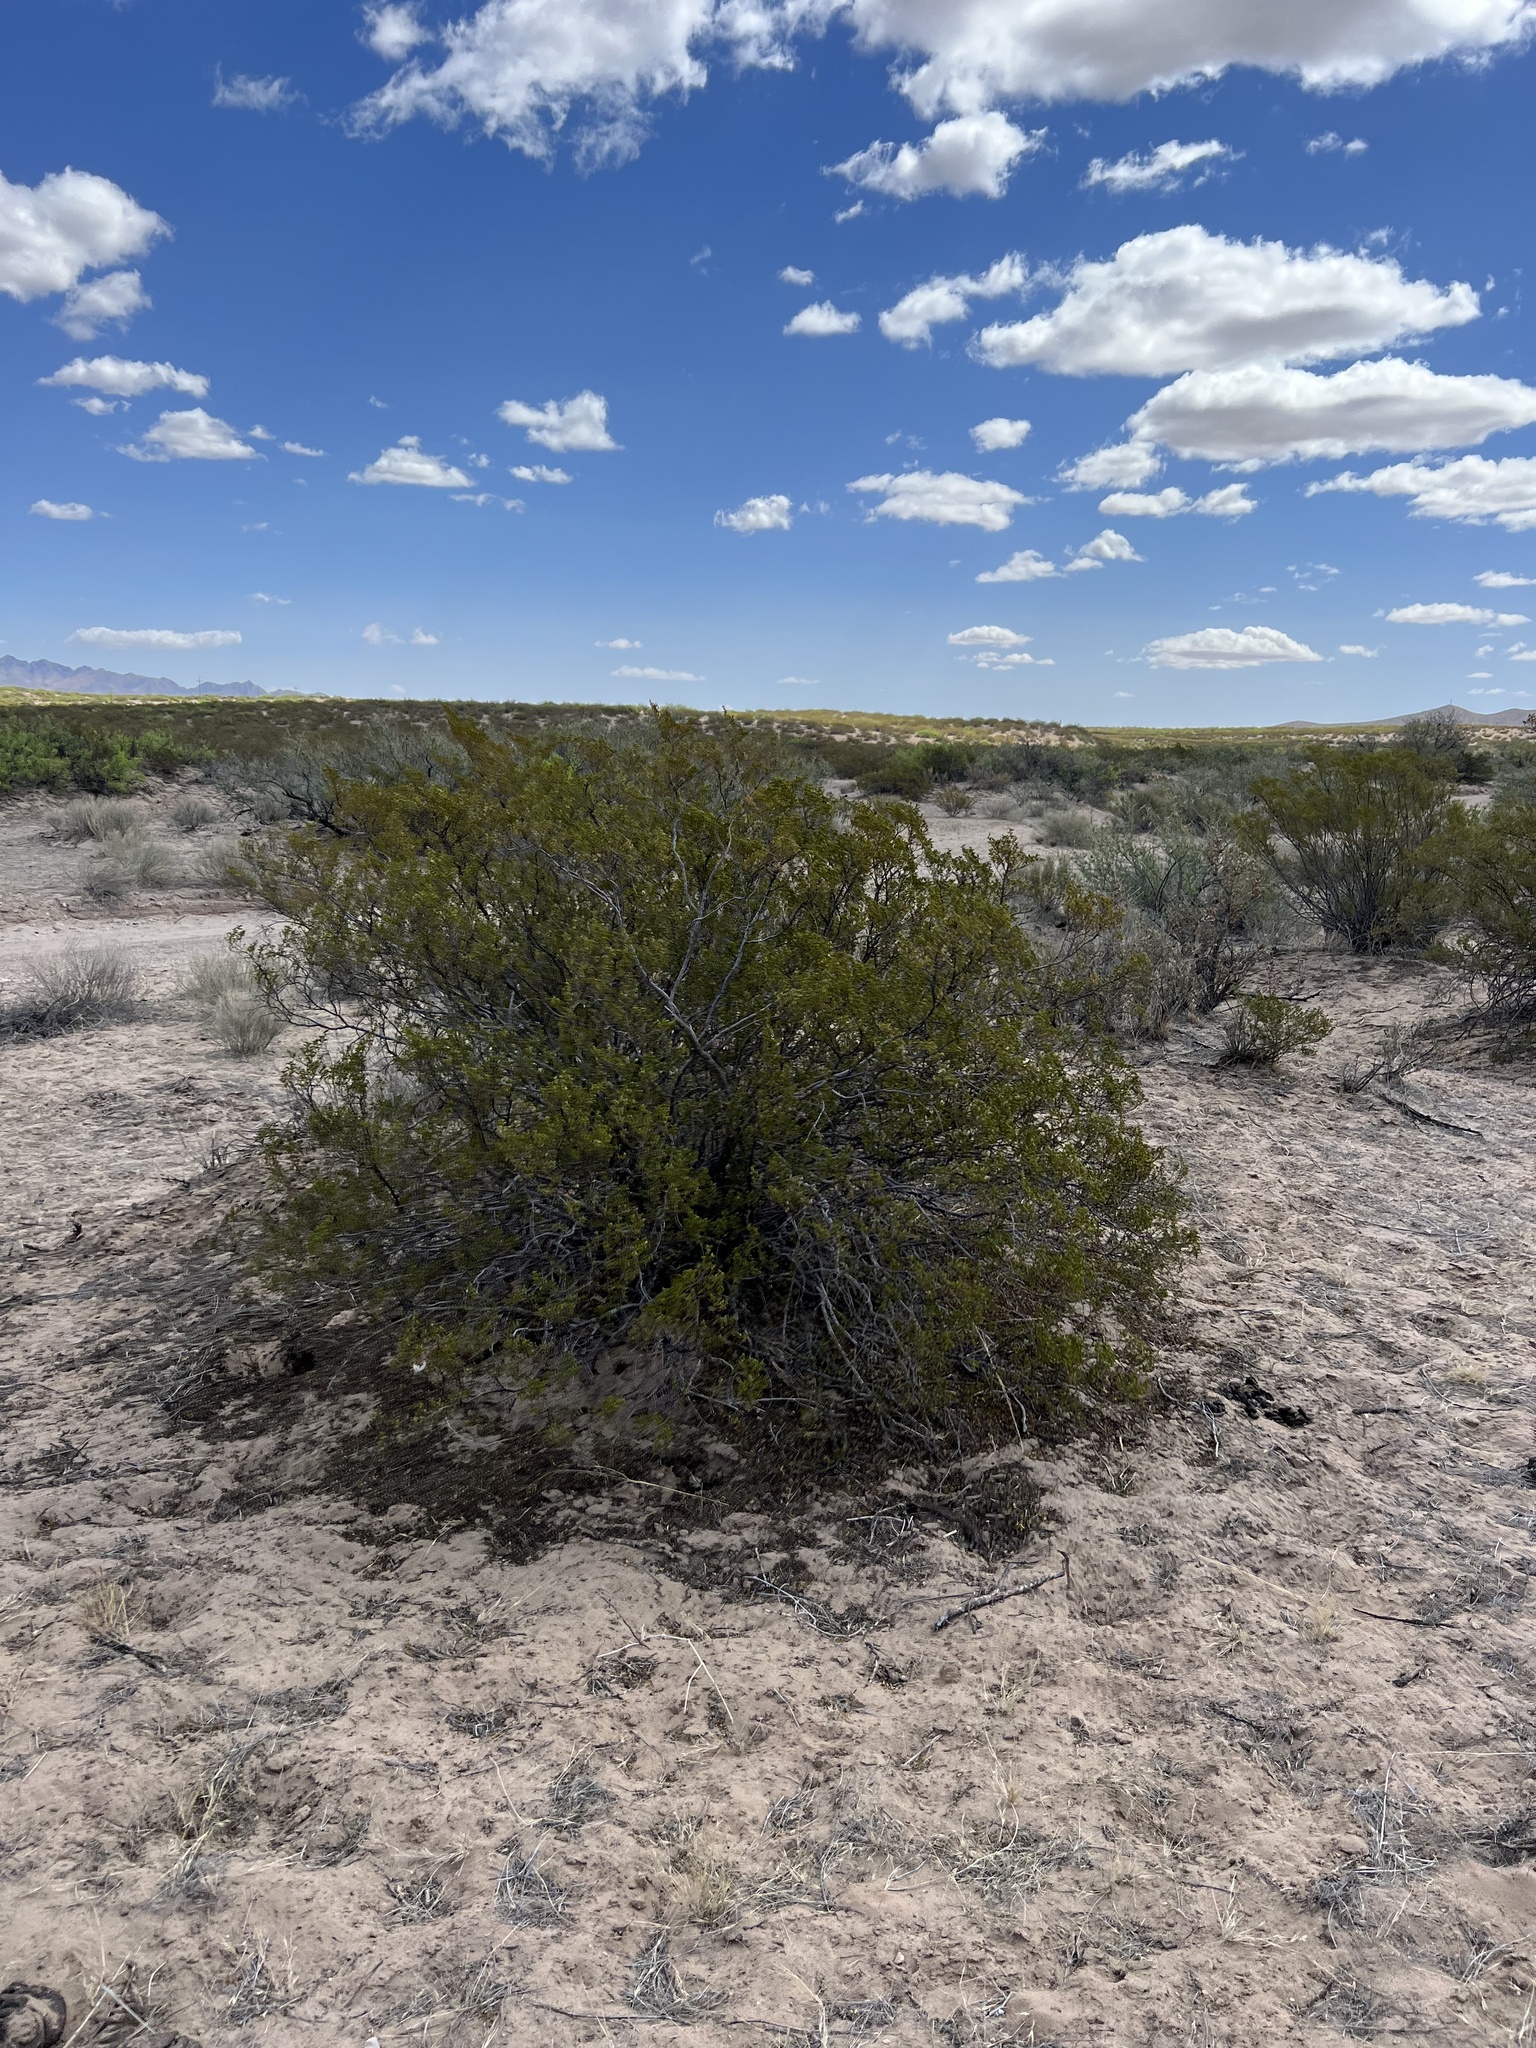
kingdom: Plantae
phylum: Tracheophyta
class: Magnoliopsida
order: Zygophyllales
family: Zygophyllaceae
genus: Larrea
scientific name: Larrea tridentata
